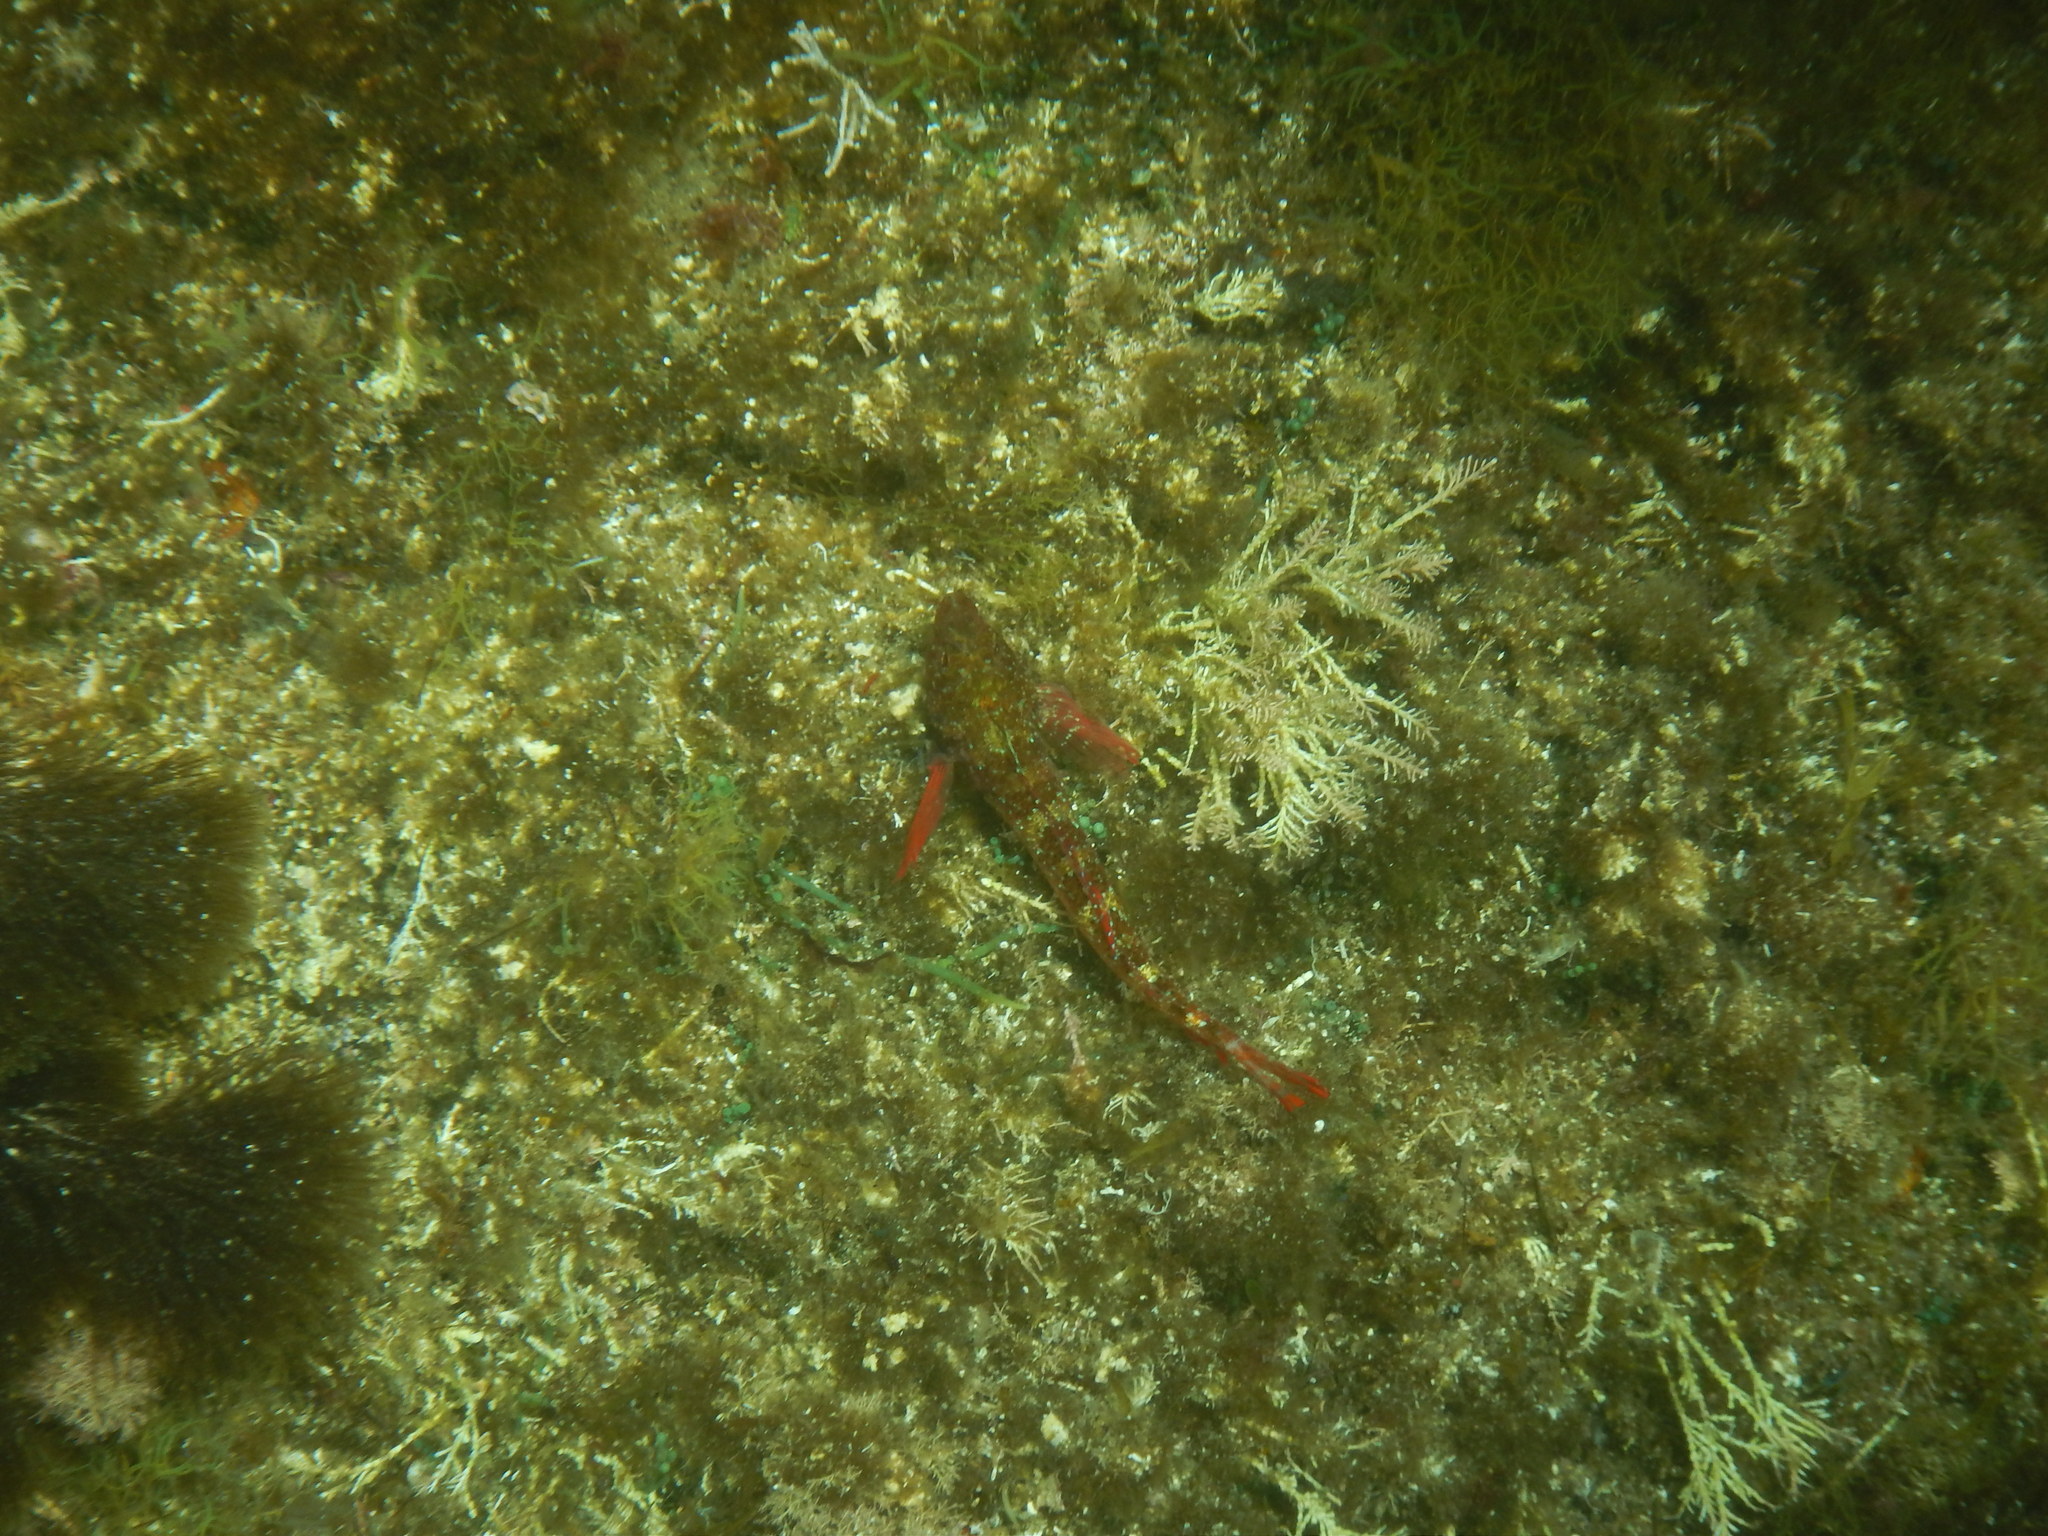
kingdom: Animalia
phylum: Chordata
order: Perciformes
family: Tripterygiidae
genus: Tripterygion
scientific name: Tripterygion tripteronotum
